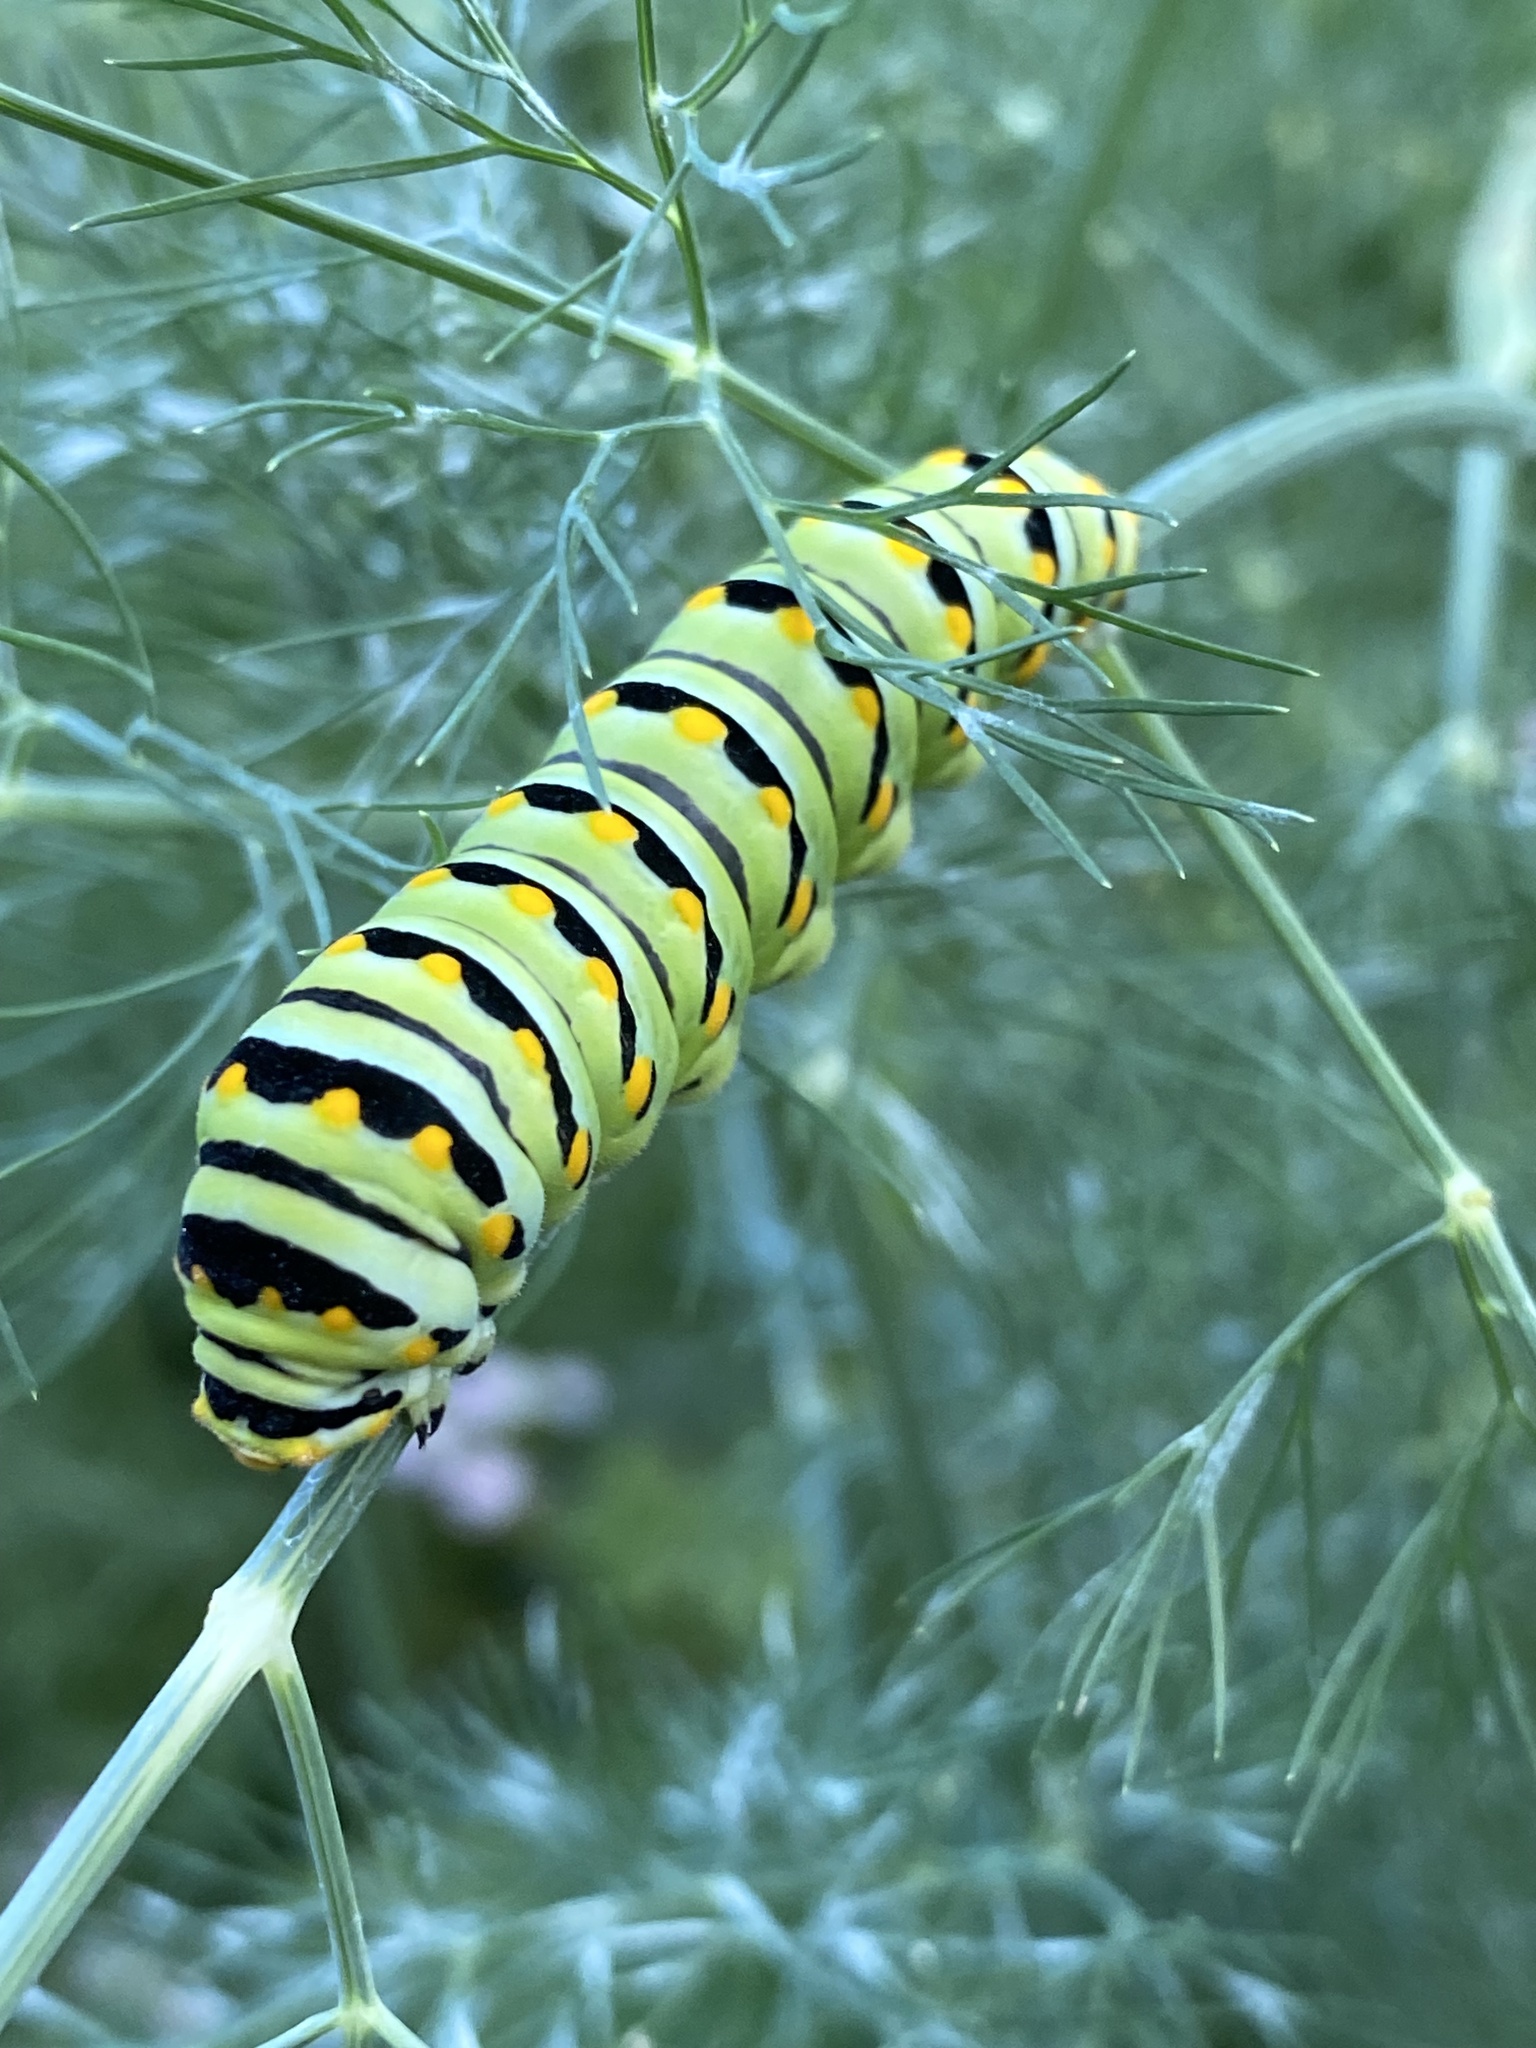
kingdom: Animalia
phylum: Arthropoda
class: Insecta
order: Lepidoptera
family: Papilionidae
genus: Papilio
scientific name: Papilio polyxenes
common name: Black swallowtail
